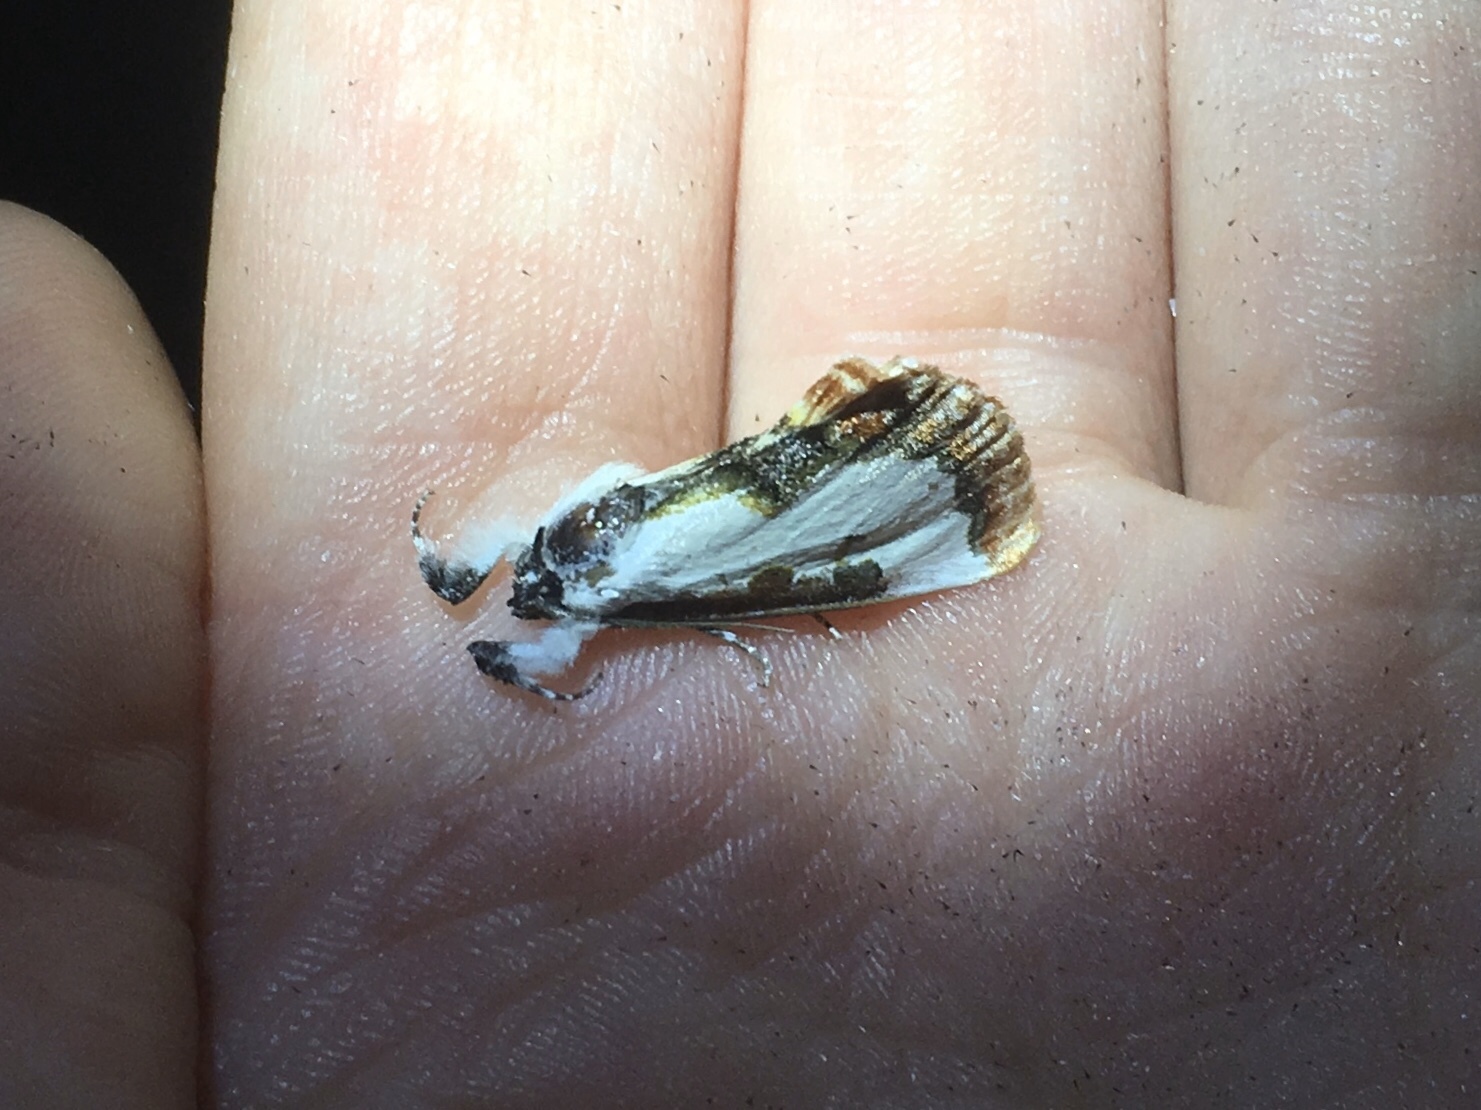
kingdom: Animalia
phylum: Arthropoda
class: Insecta
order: Lepidoptera
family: Noctuidae
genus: Eudryas
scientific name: Eudryas unio
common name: Pearly wood-nymph
